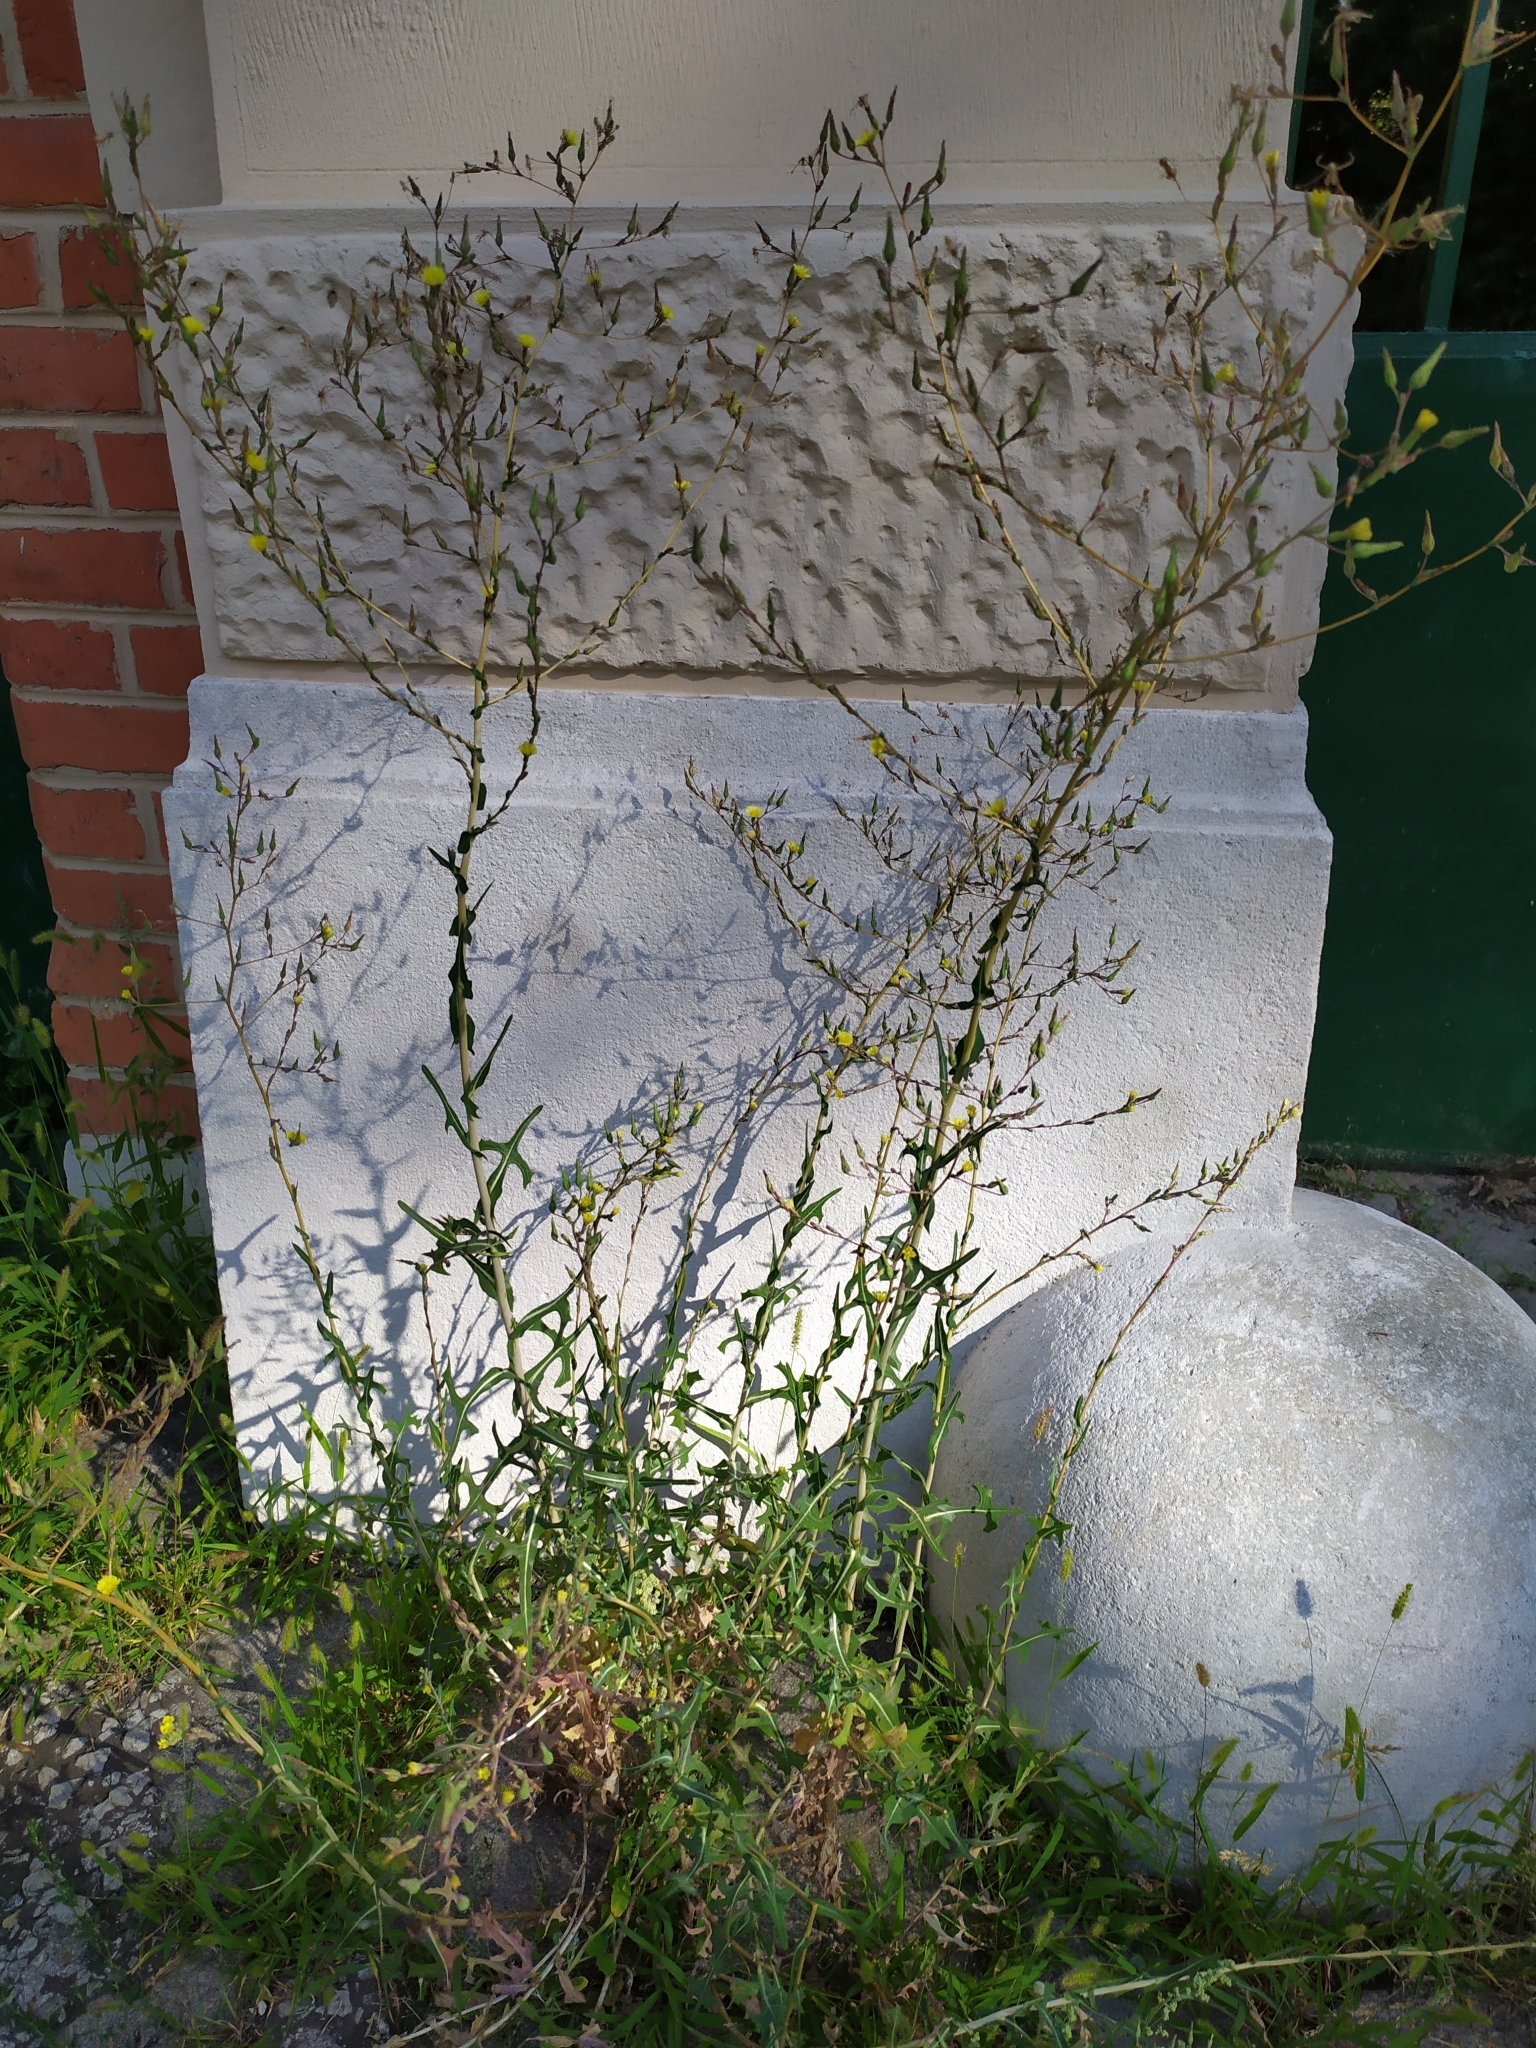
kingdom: Plantae
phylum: Tracheophyta
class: Magnoliopsida
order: Asterales
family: Asteraceae
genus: Lactuca
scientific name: Lactuca serriola
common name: Prickly lettuce
